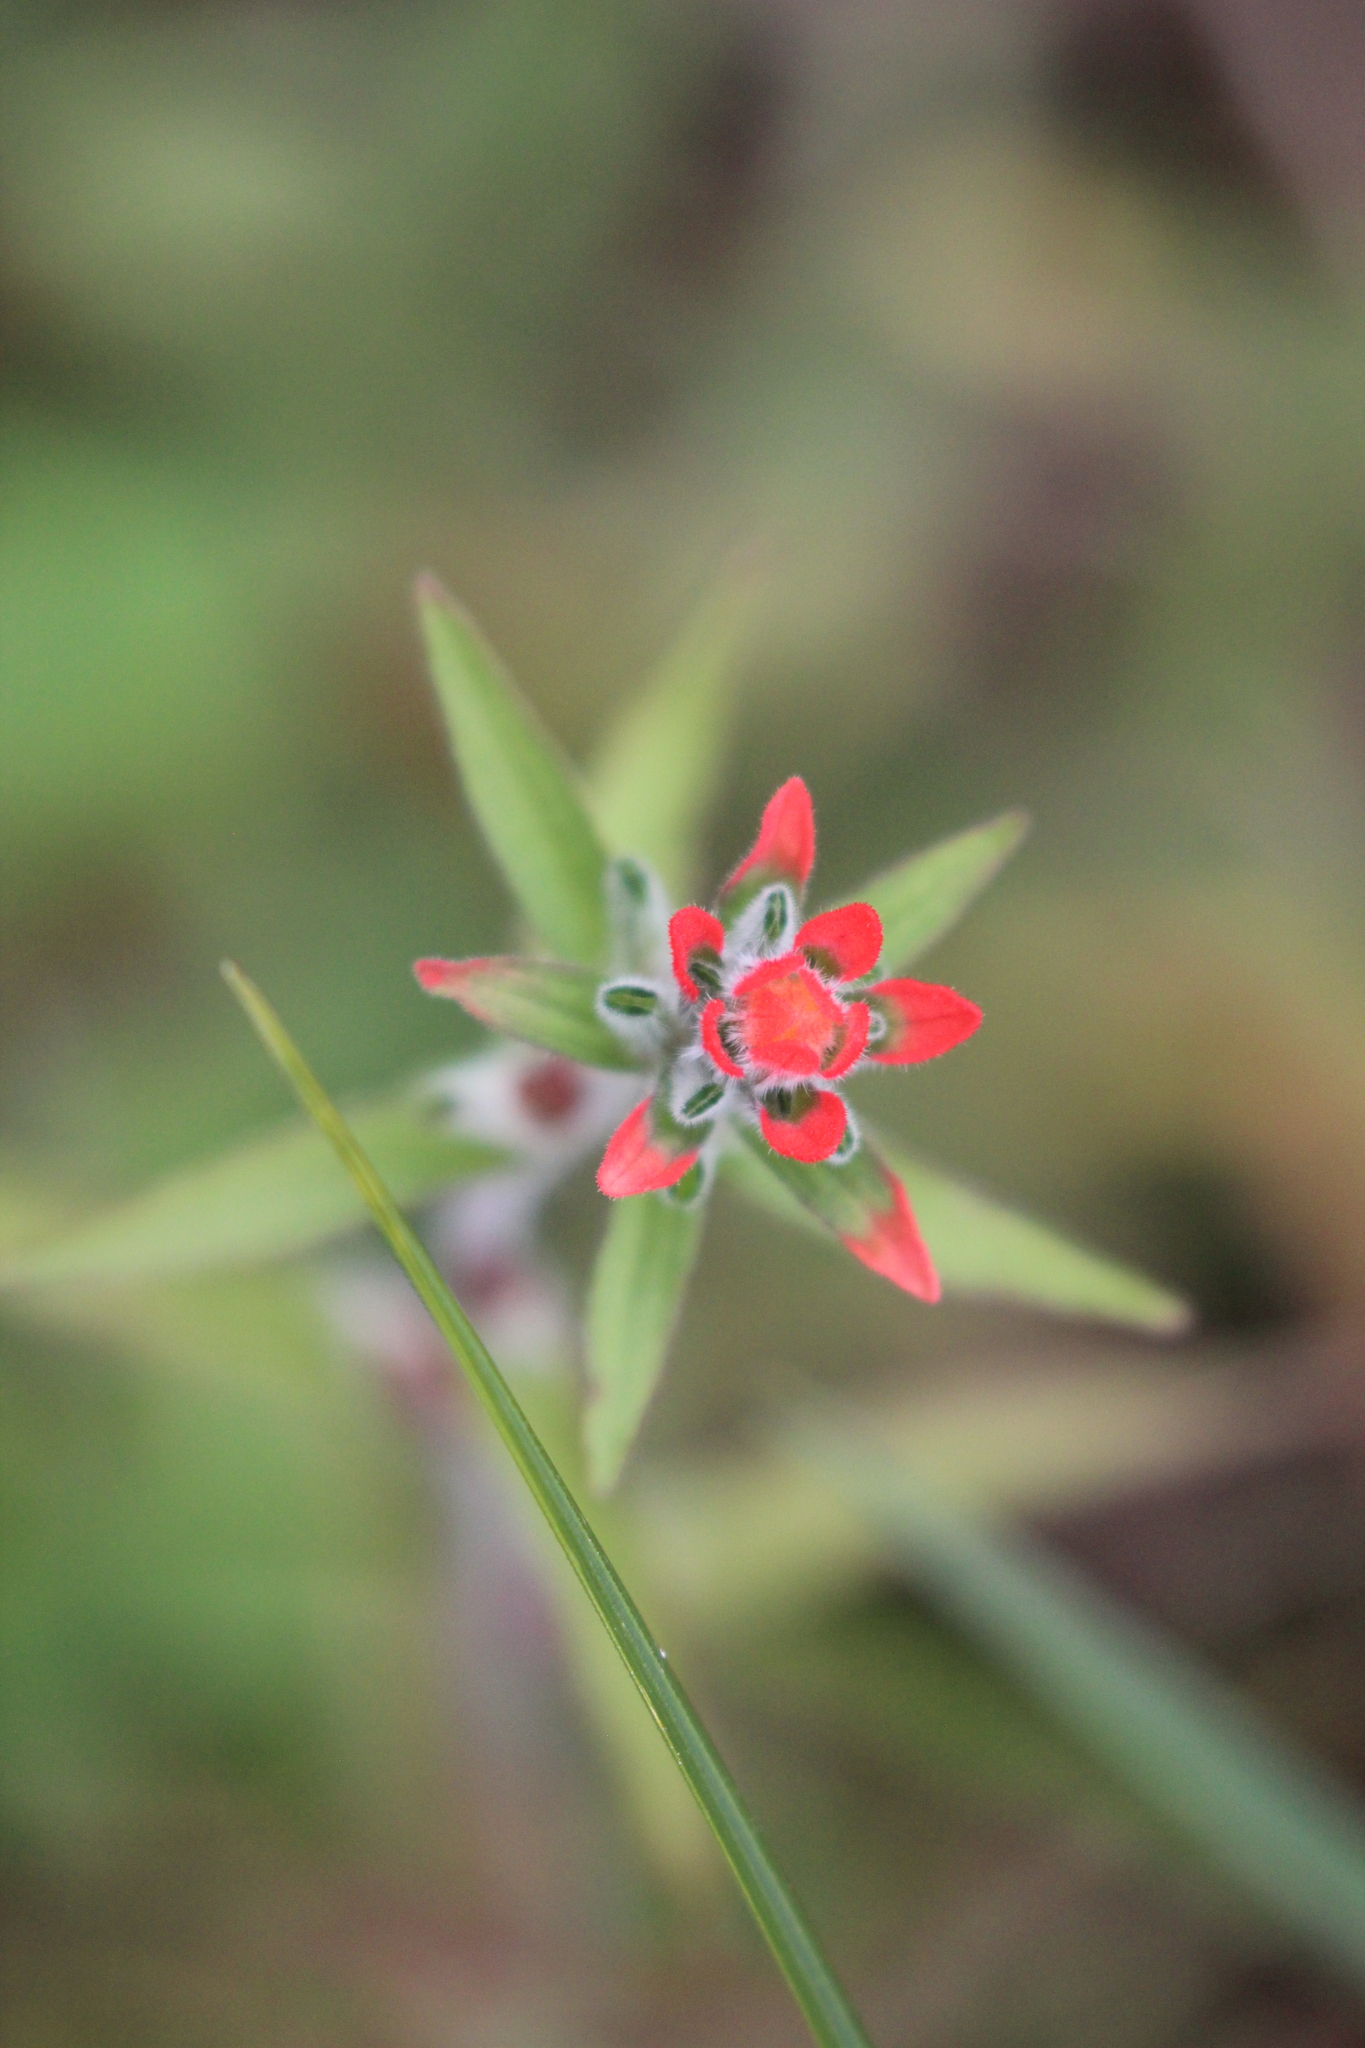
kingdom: Plantae
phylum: Tracheophyta
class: Magnoliopsida
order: Lamiales
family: Orobanchaceae
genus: Castilleja
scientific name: Castilleja arvensis
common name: Indian paintbrush
